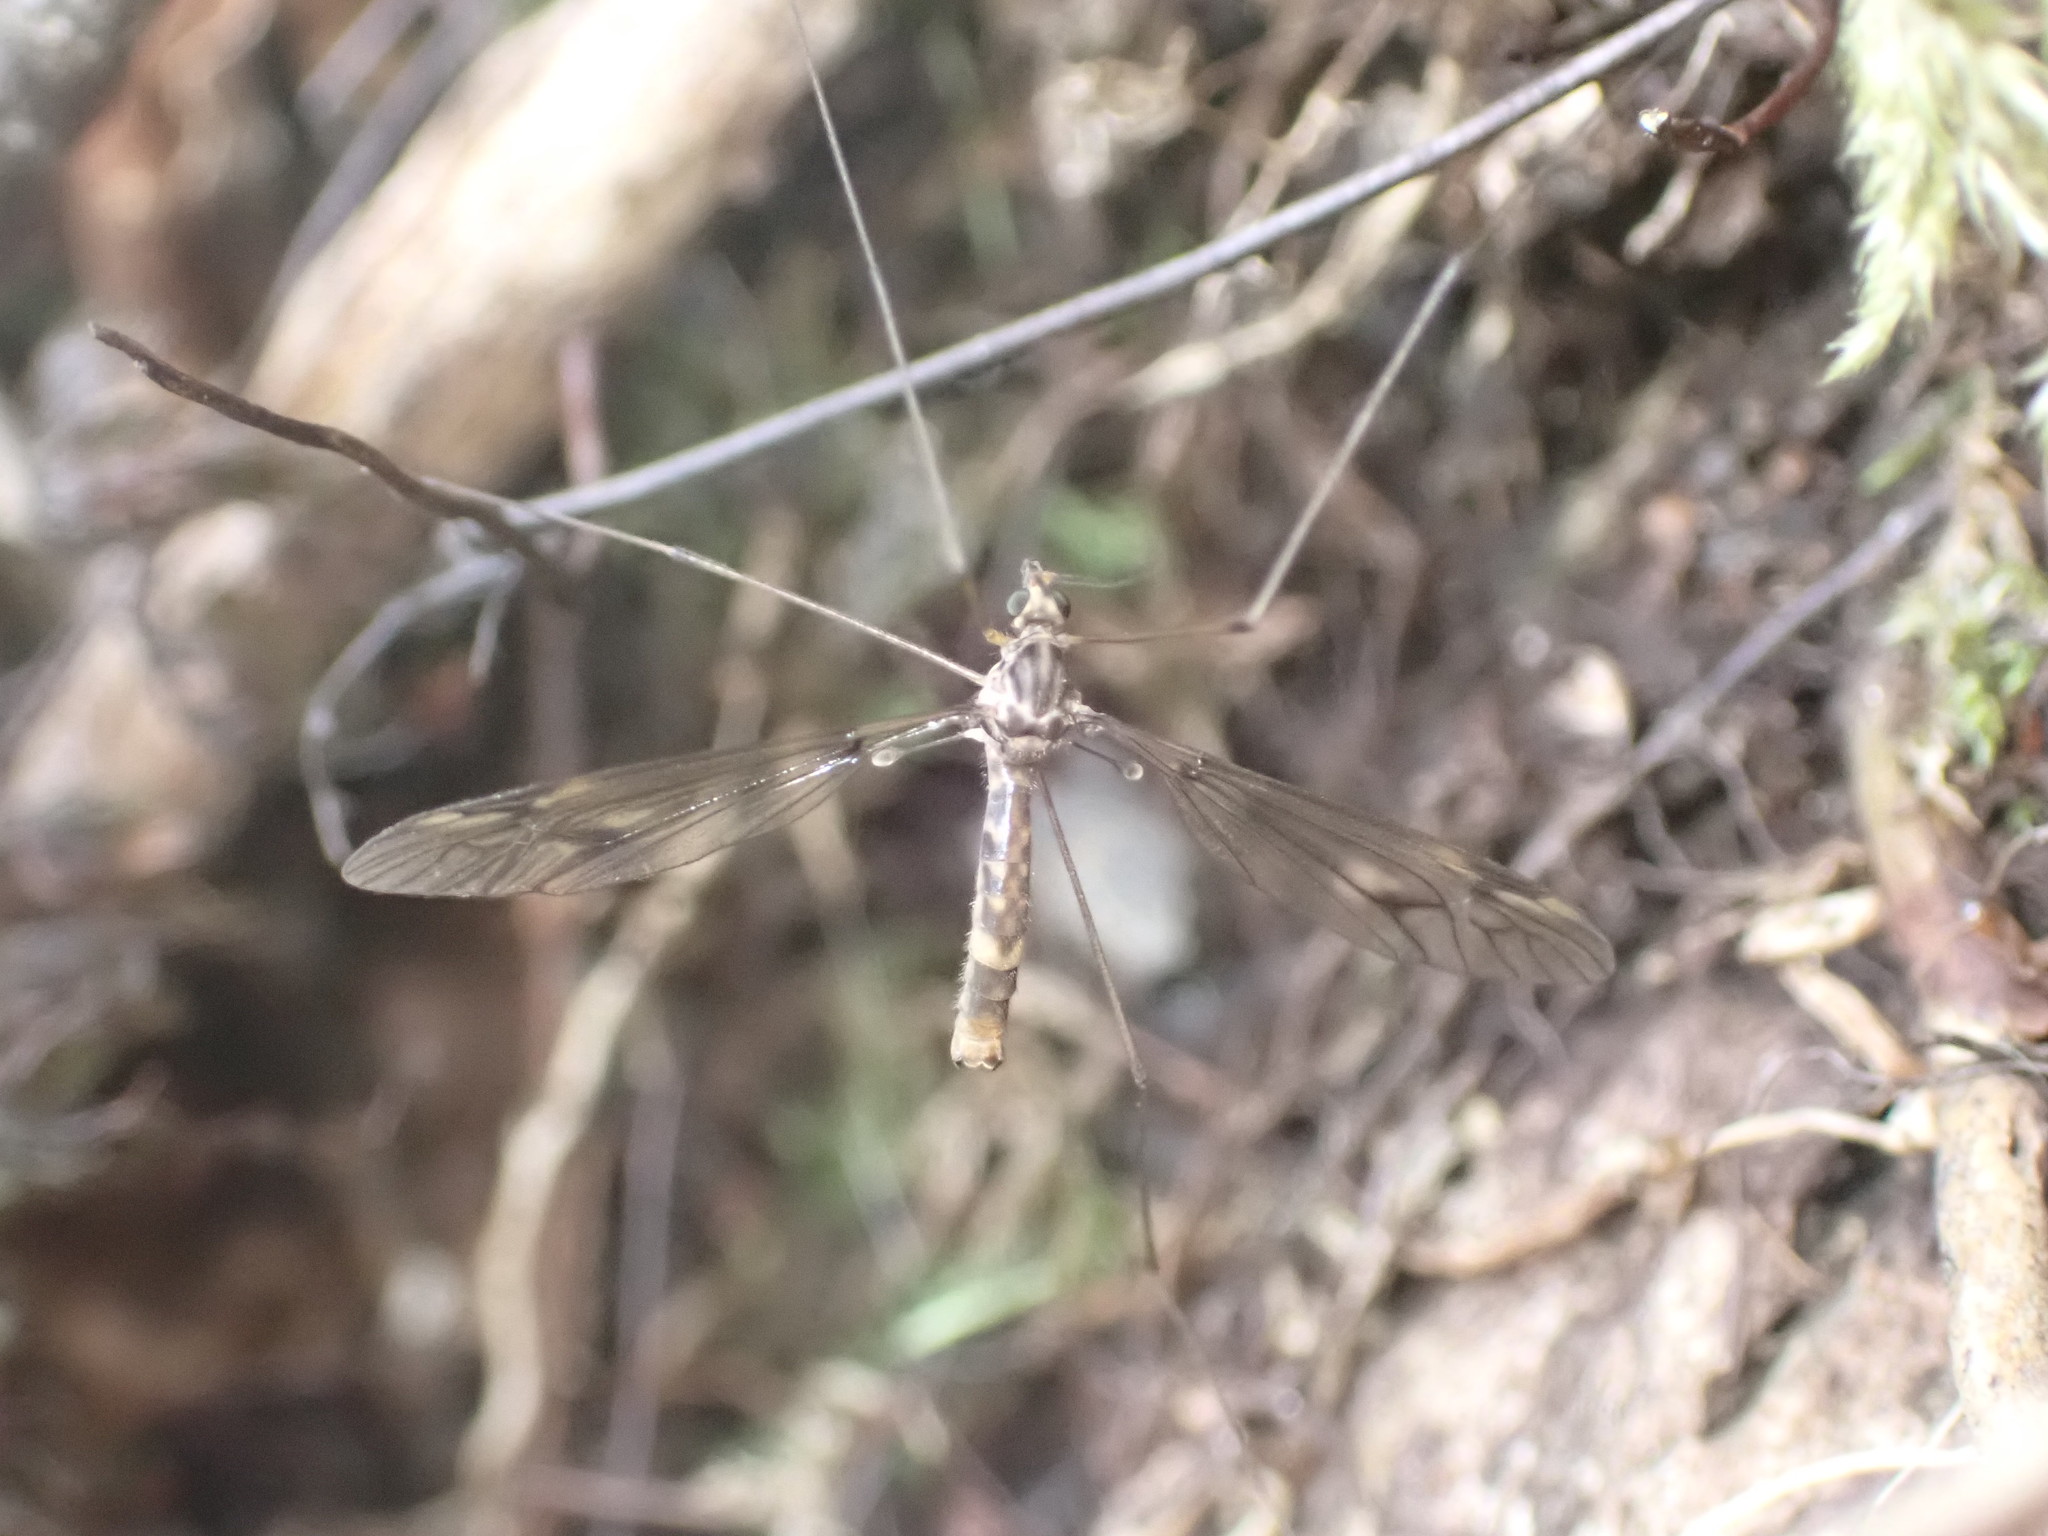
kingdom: Animalia
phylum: Arthropoda
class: Insecta
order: Diptera
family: Tipulidae
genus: Leptotarsus
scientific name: Leptotarsus cubitalis
